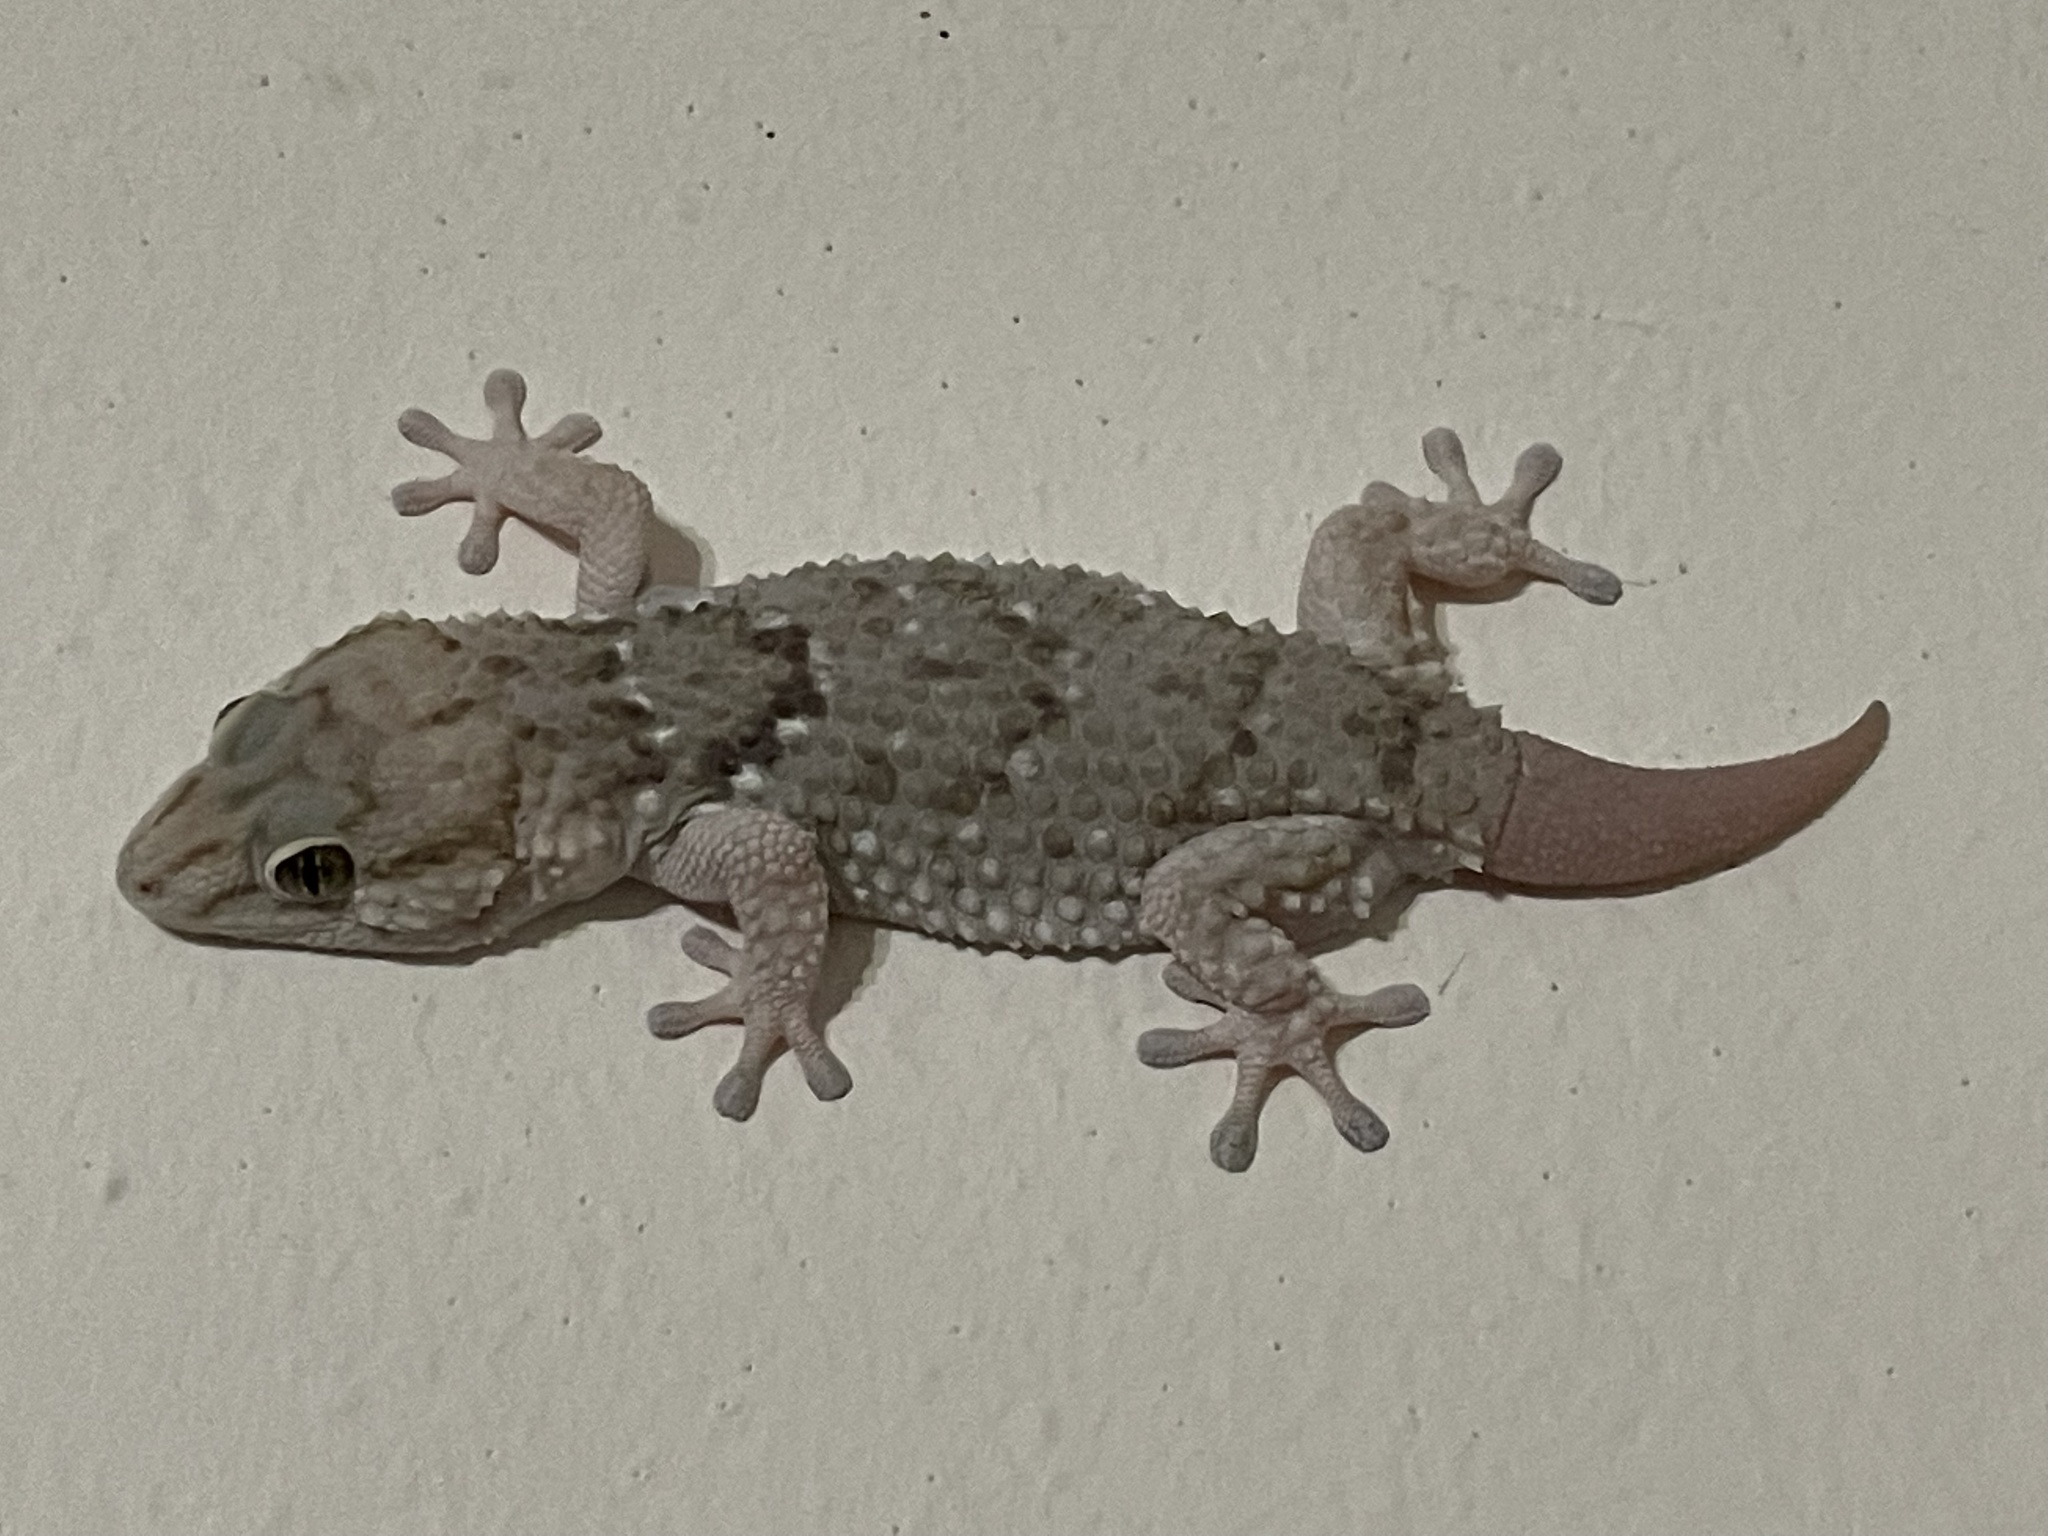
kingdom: Animalia
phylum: Chordata
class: Squamata
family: Gekkonidae
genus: Chondrodactylus
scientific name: Chondrodactylus laevigatus
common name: Fischer's thick-toed gecko
